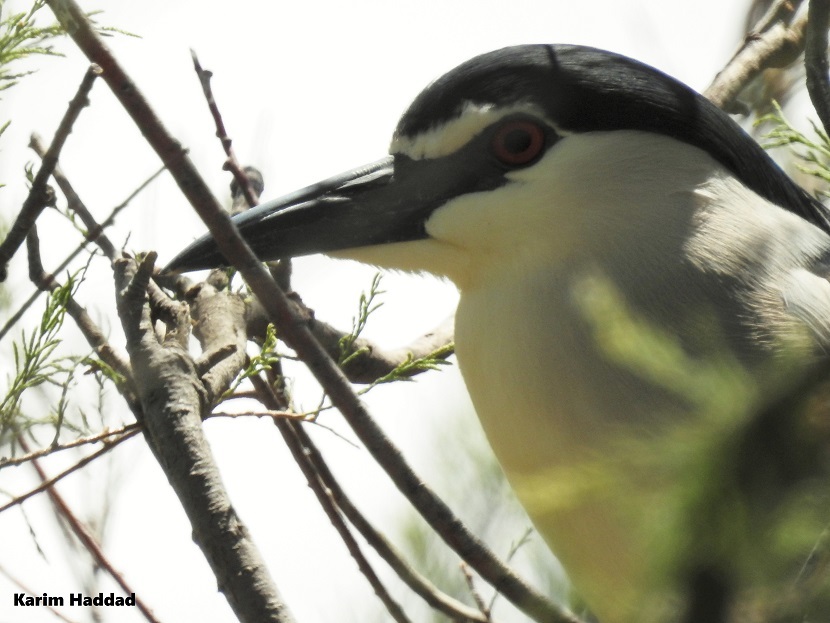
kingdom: Animalia
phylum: Chordata
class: Aves
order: Pelecaniformes
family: Ardeidae
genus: Nycticorax
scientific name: Nycticorax nycticorax
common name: Black-crowned night heron
